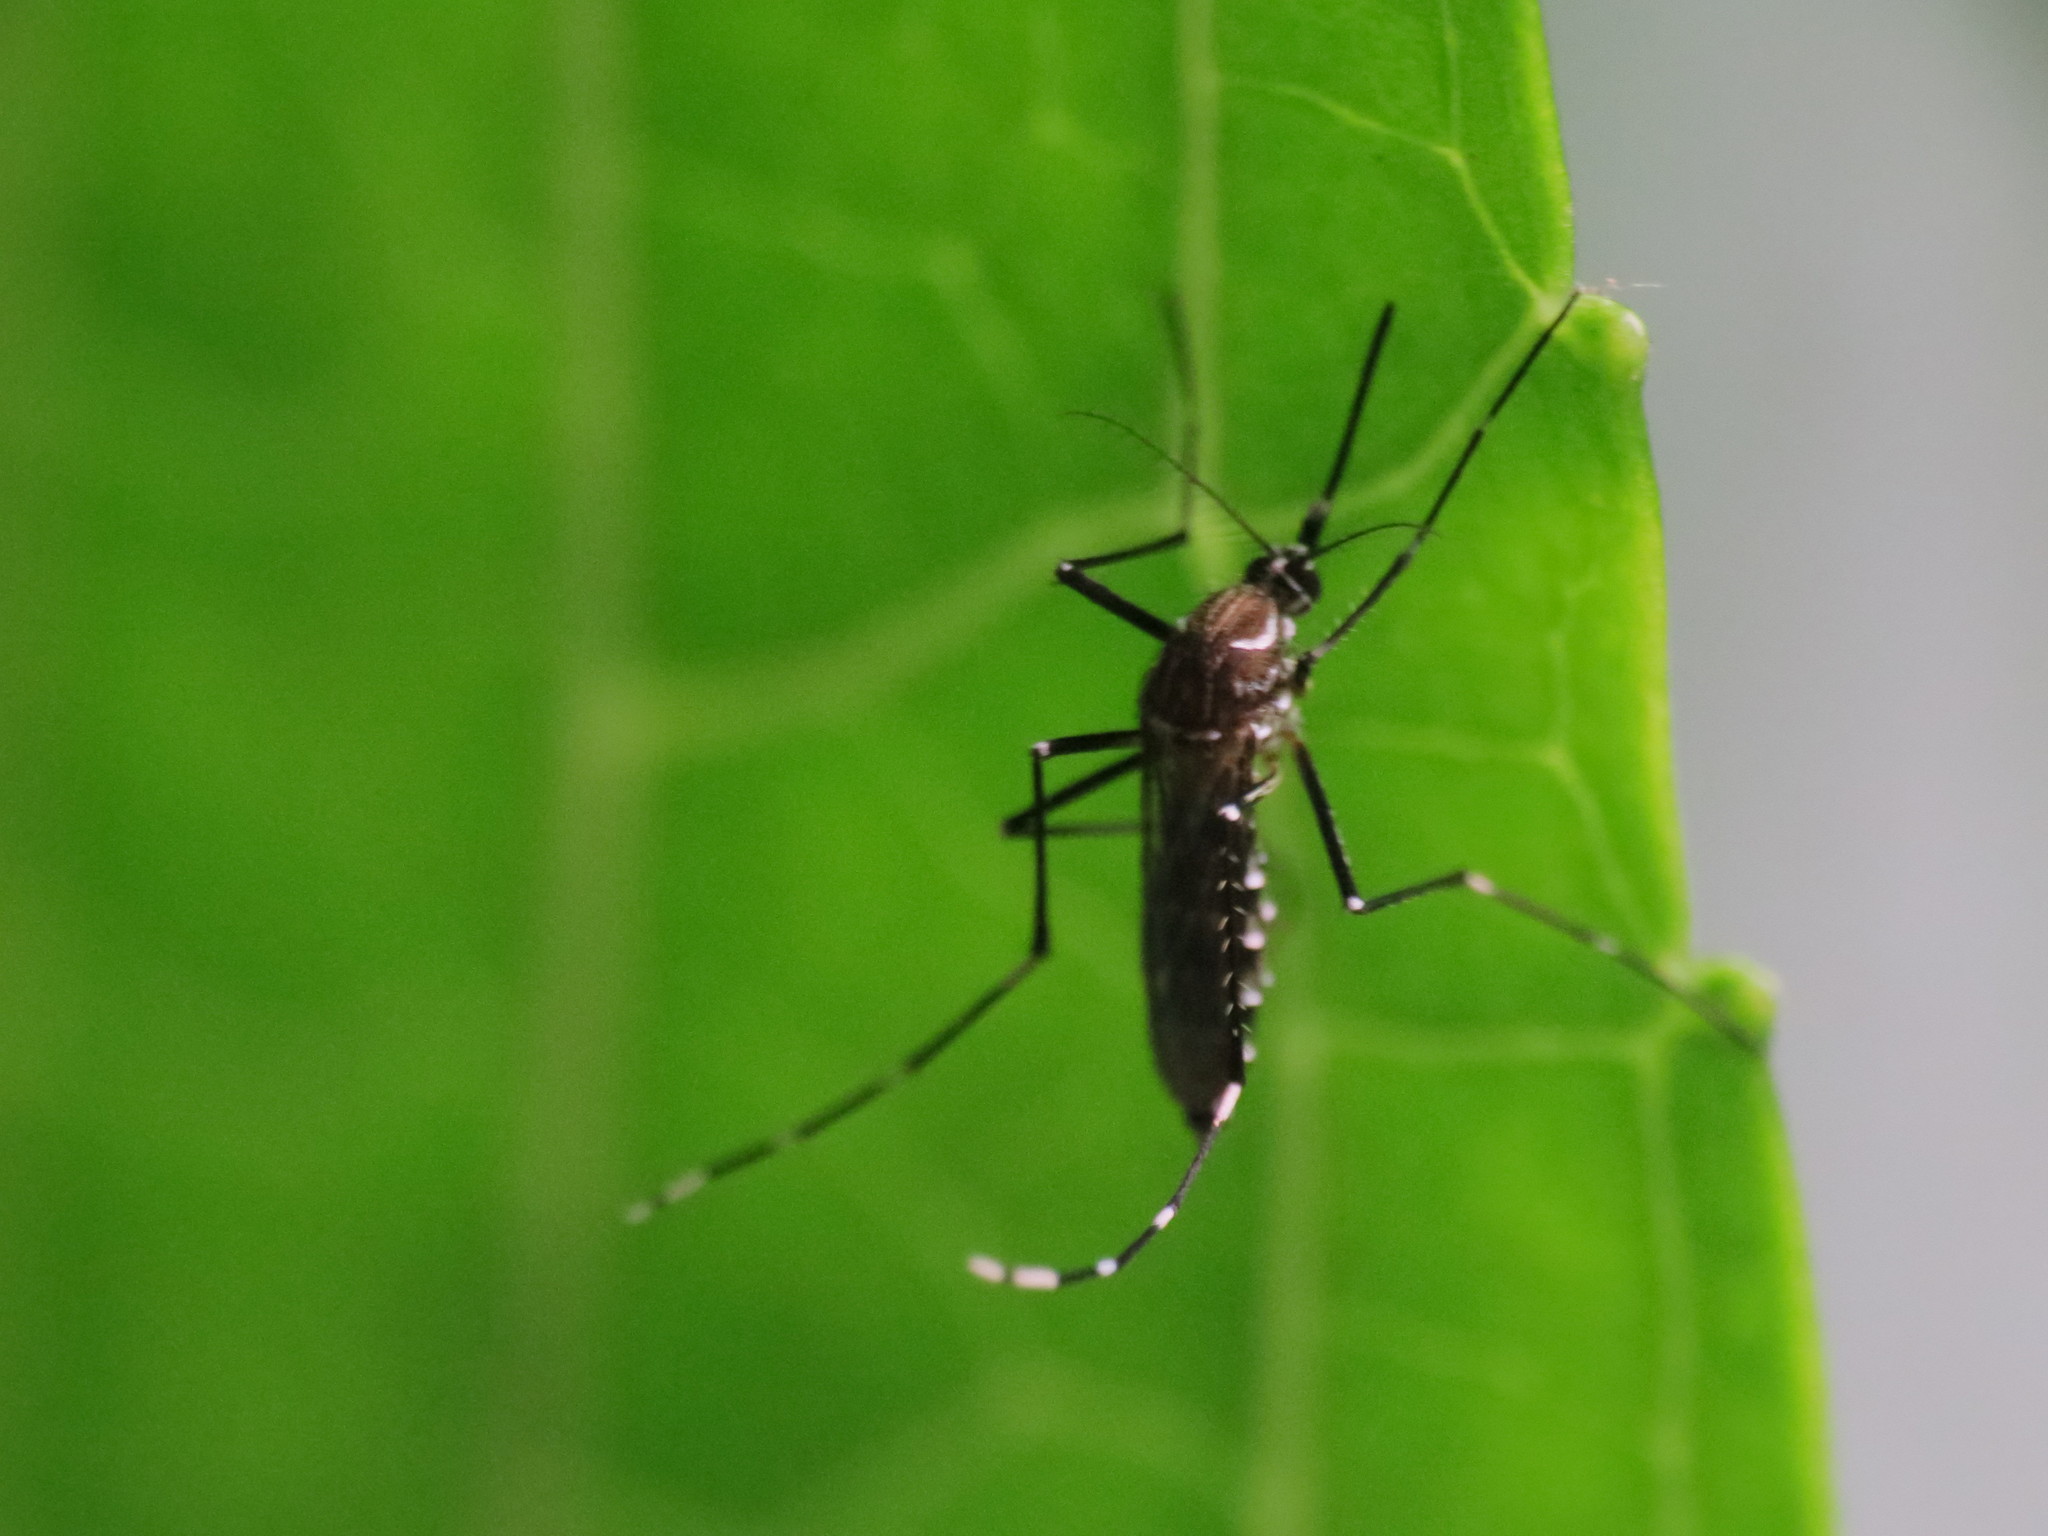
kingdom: Animalia
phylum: Arthropoda
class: Insecta
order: Diptera
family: Culicidae
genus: Aedes
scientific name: Aedes aegypti
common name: Yellow fever mosquito
